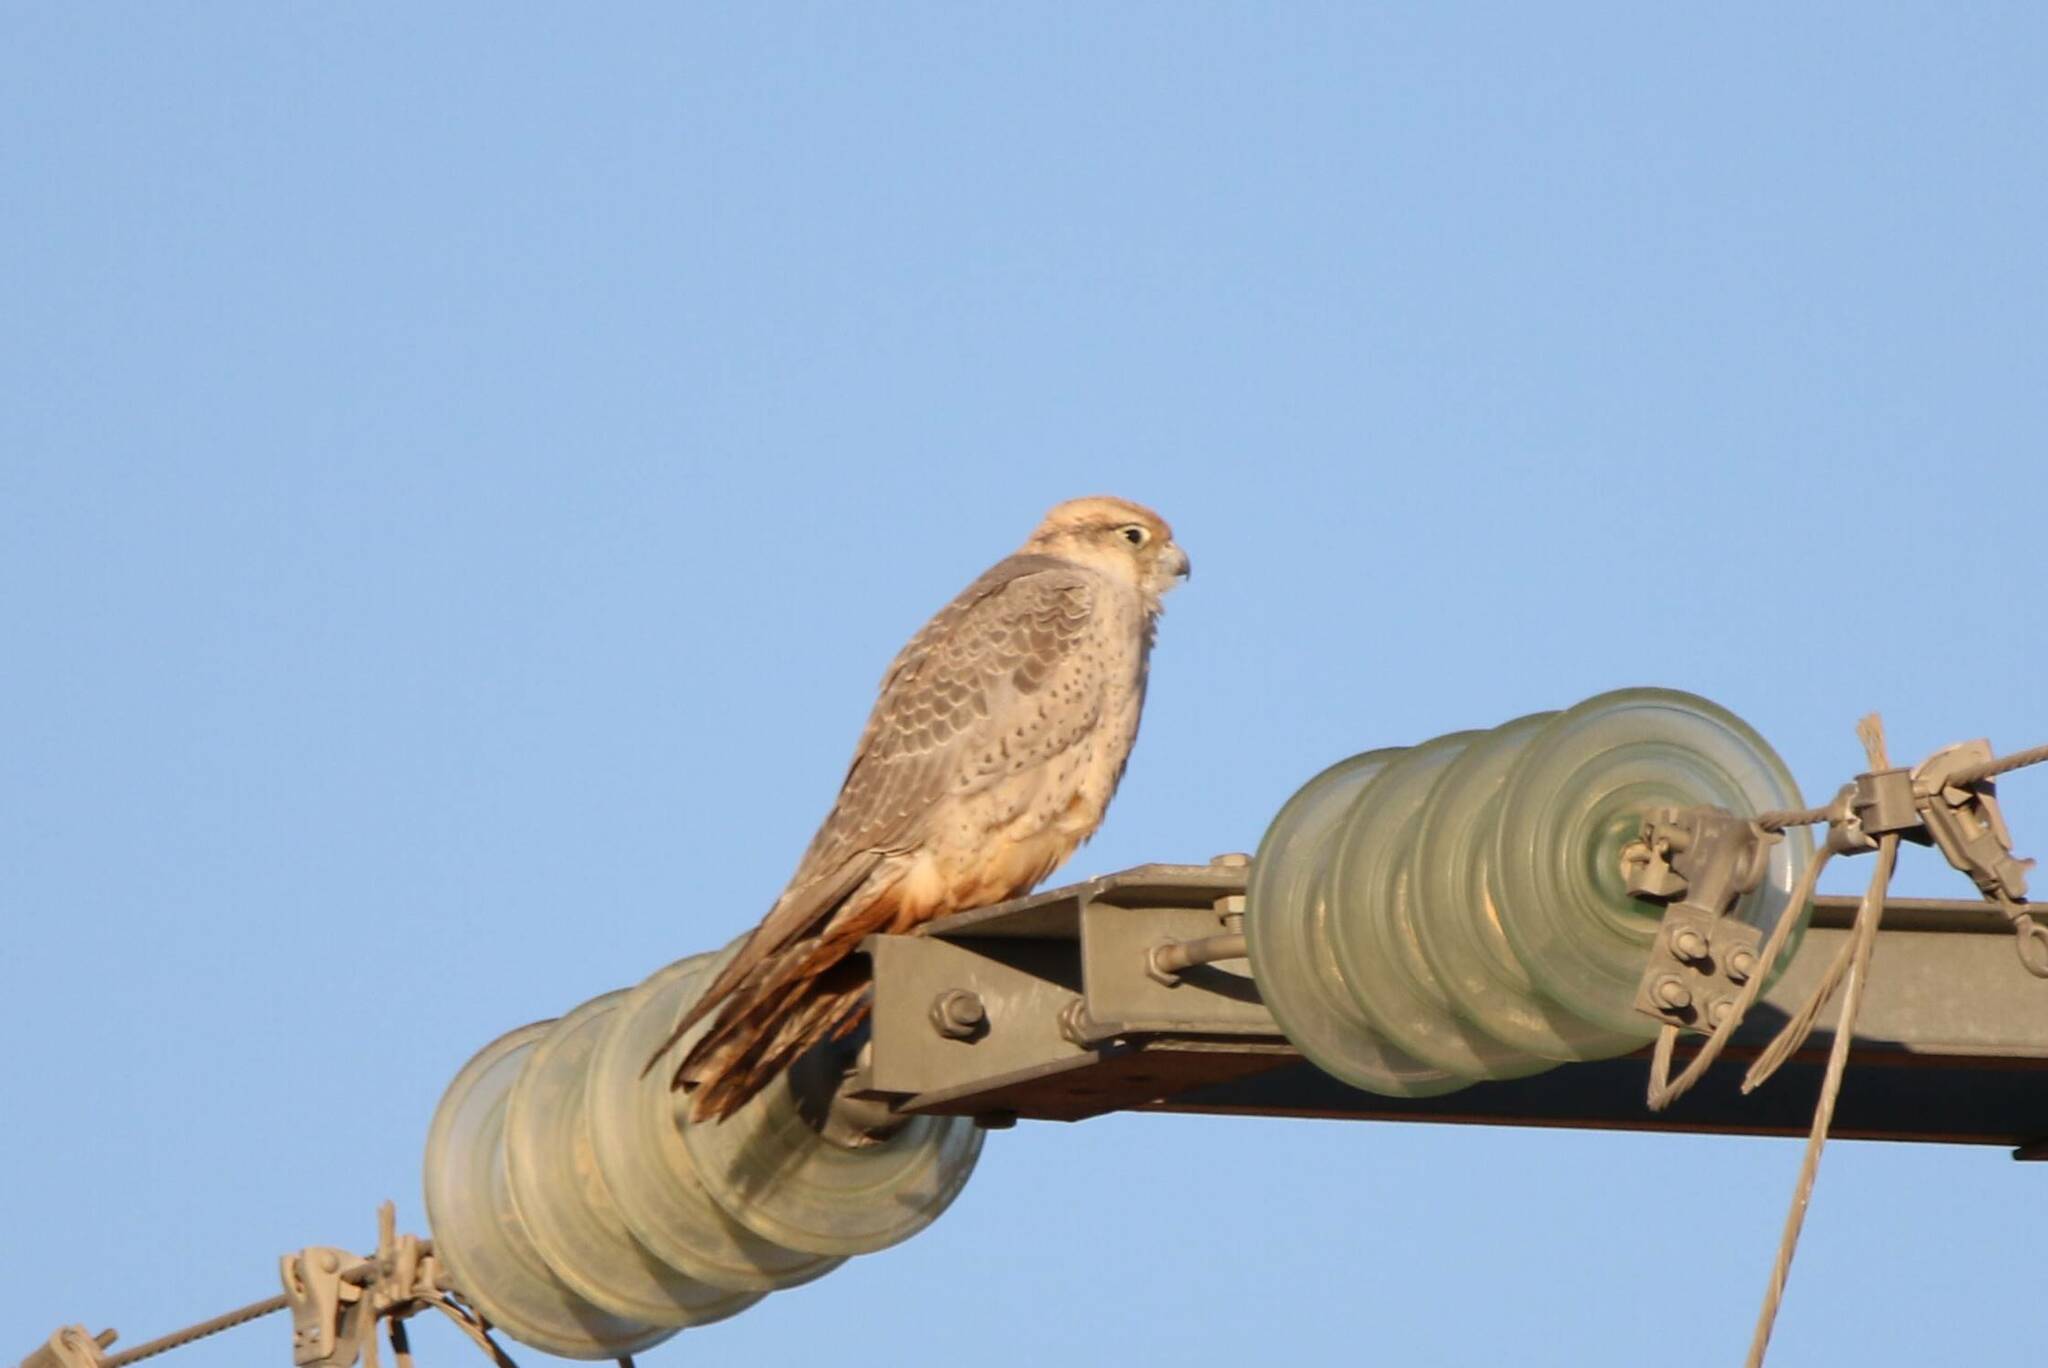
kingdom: Animalia
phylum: Chordata
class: Aves
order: Falconiformes
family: Falconidae
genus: Falco
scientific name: Falco biarmicus
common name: Lanner falcon
